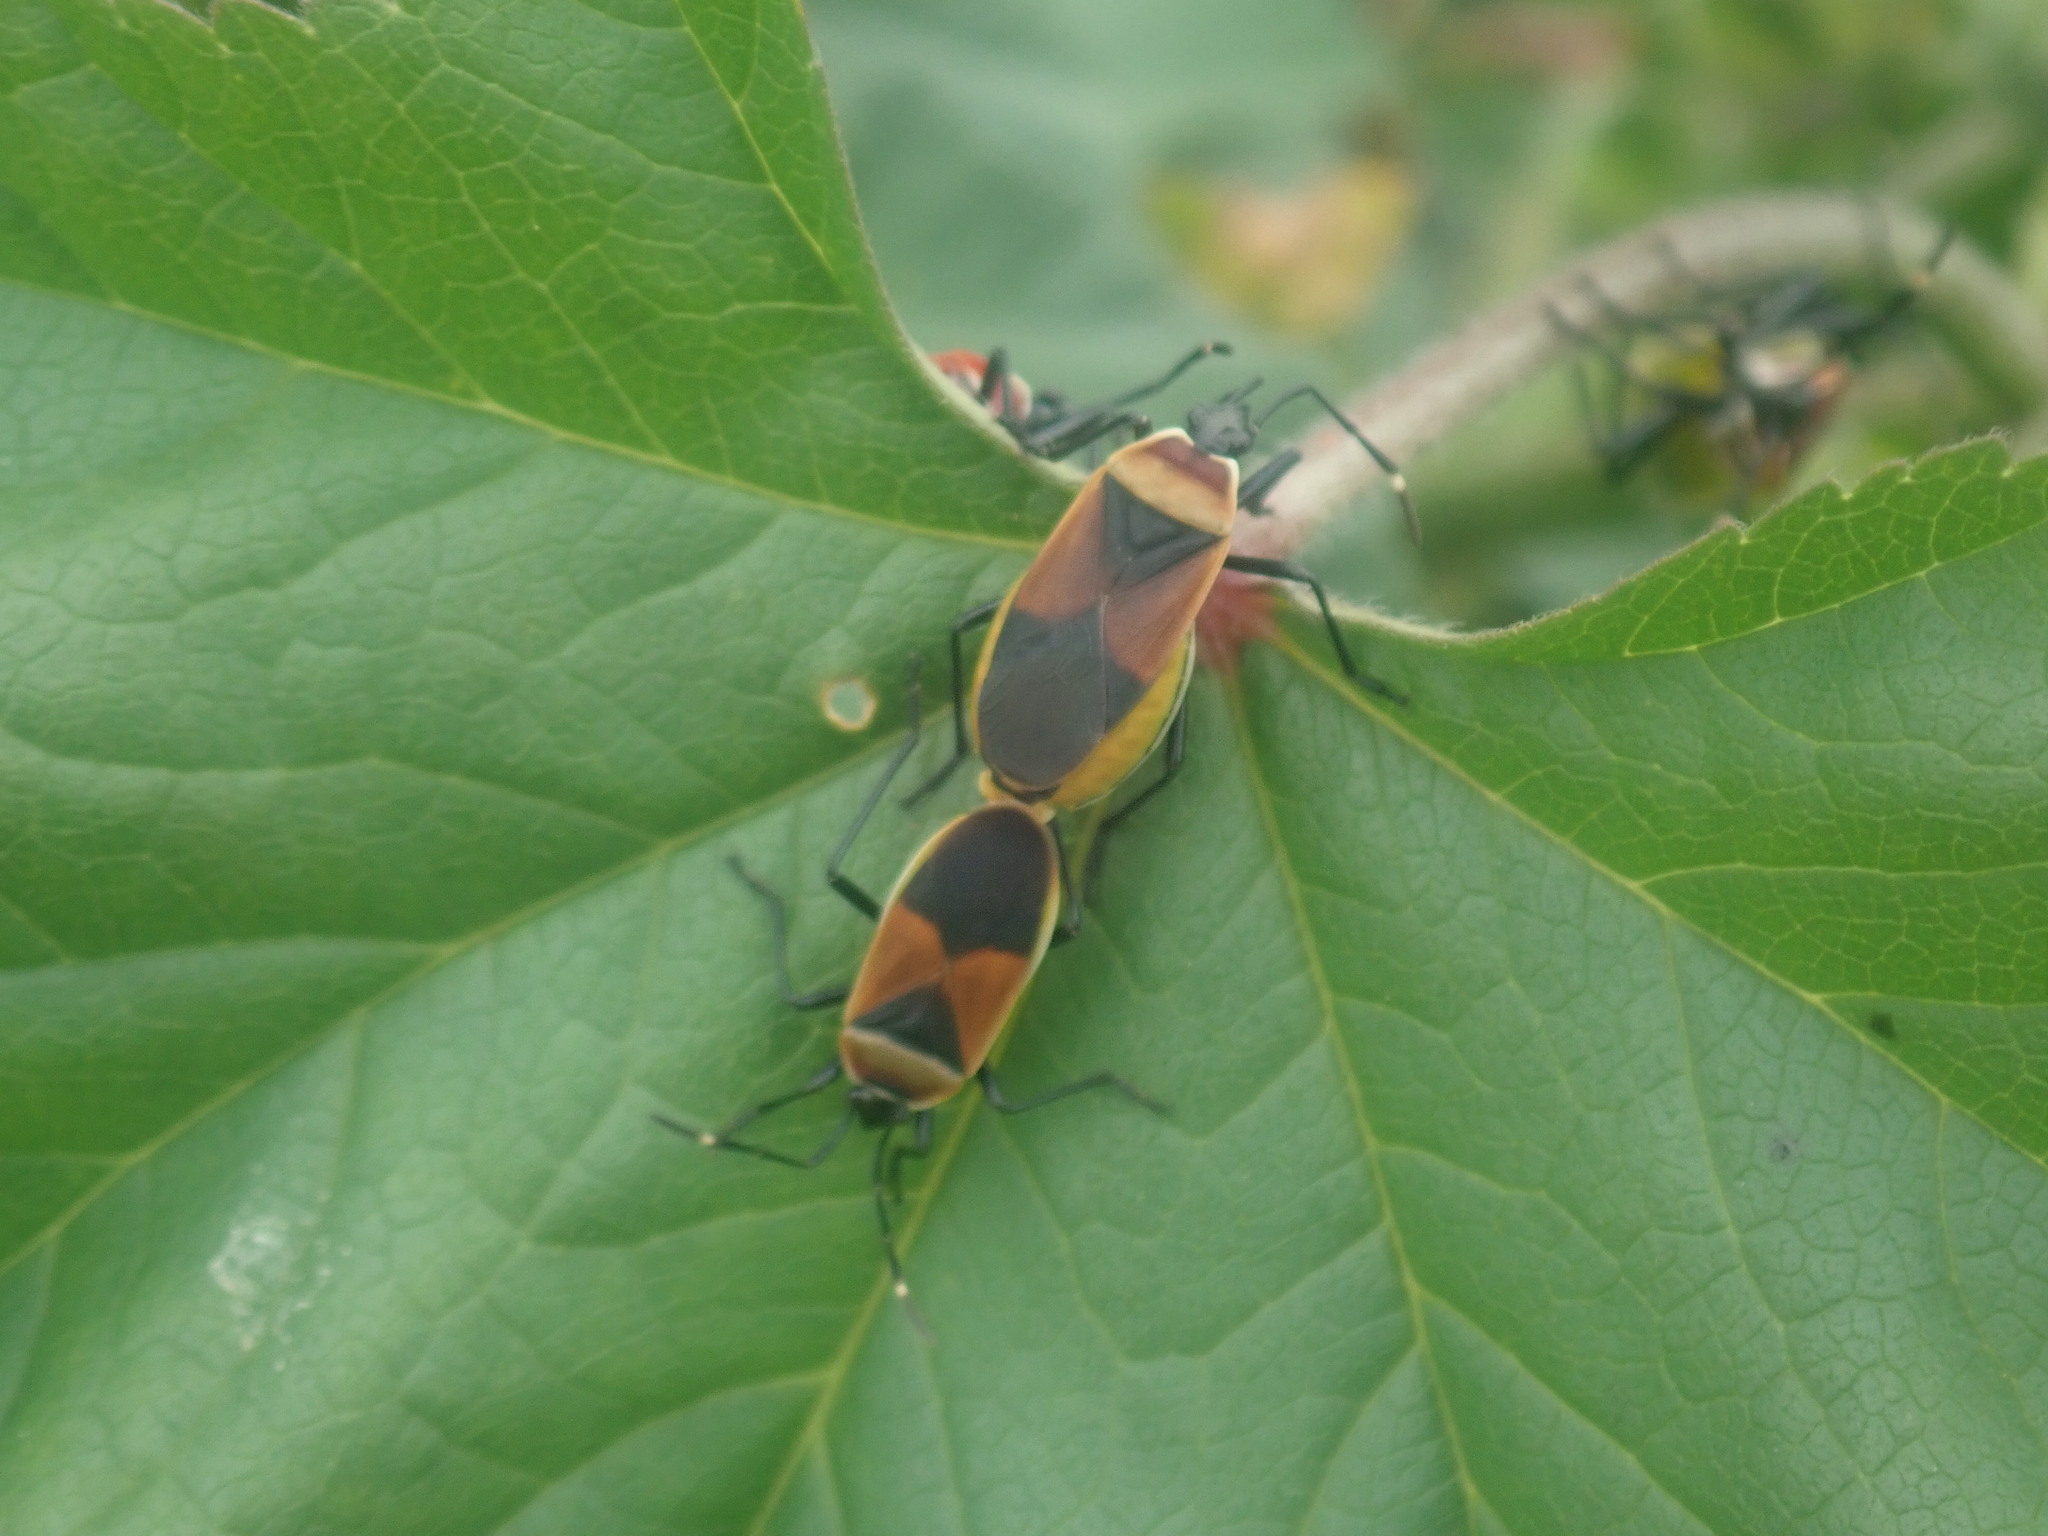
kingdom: Animalia
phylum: Arthropoda
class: Insecta
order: Hemiptera
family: Pyrrhocoridae
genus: Dindymus
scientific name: Dindymus
